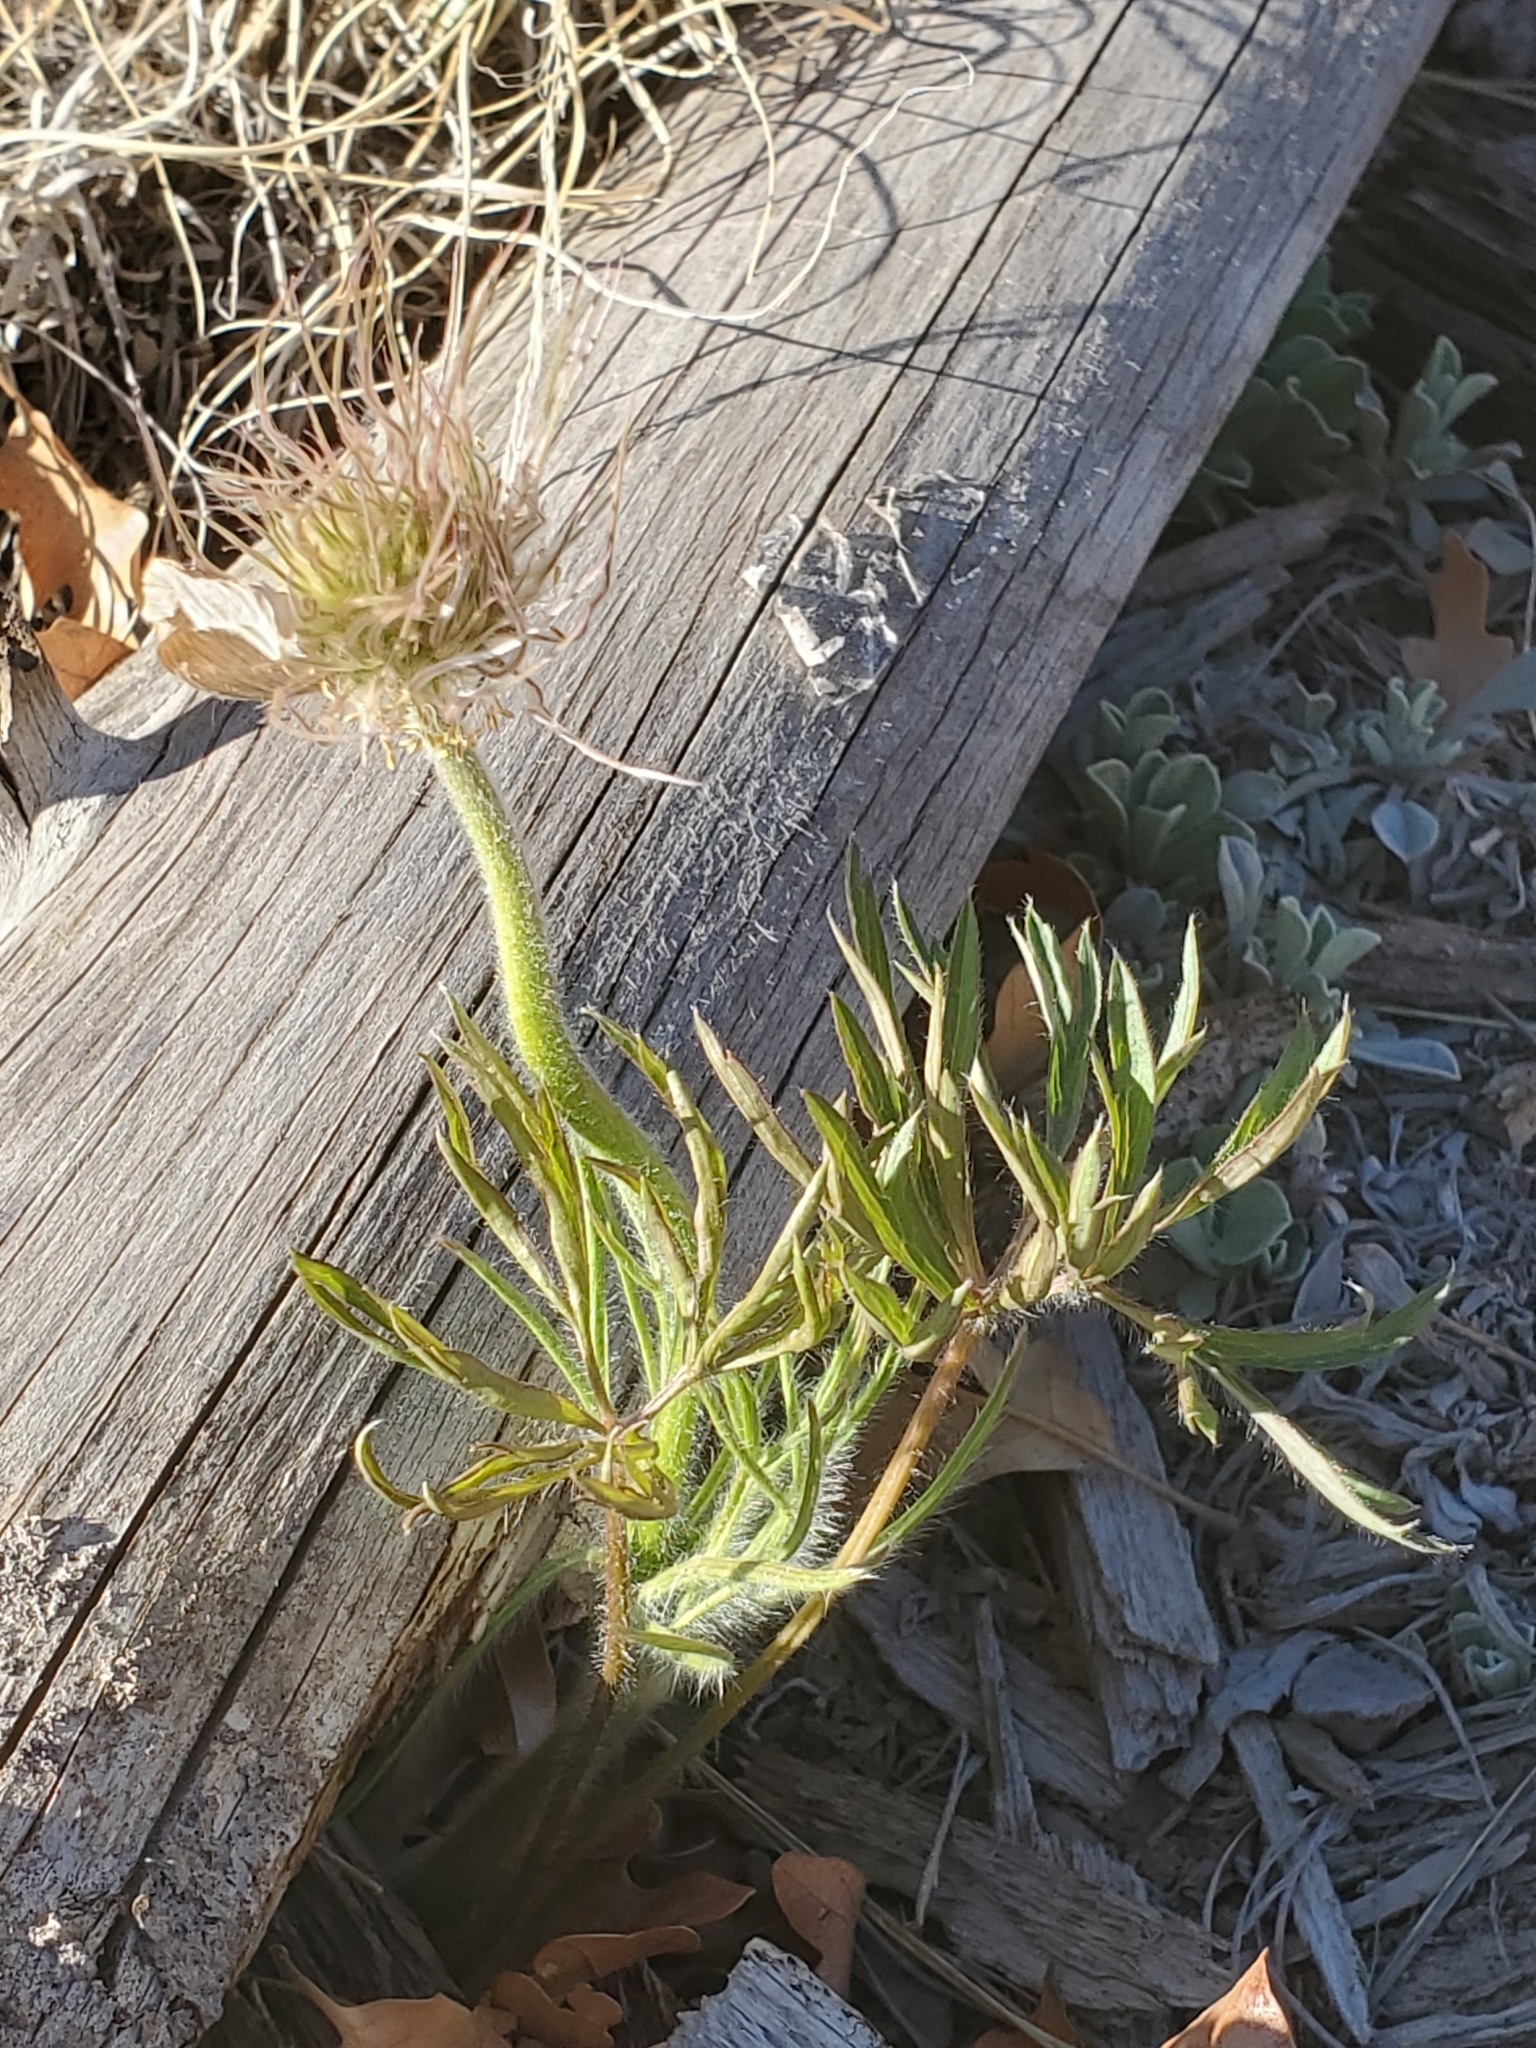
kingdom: Plantae
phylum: Tracheophyta
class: Magnoliopsida
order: Ranunculales
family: Ranunculaceae
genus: Pulsatilla
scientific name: Pulsatilla nuttalliana
